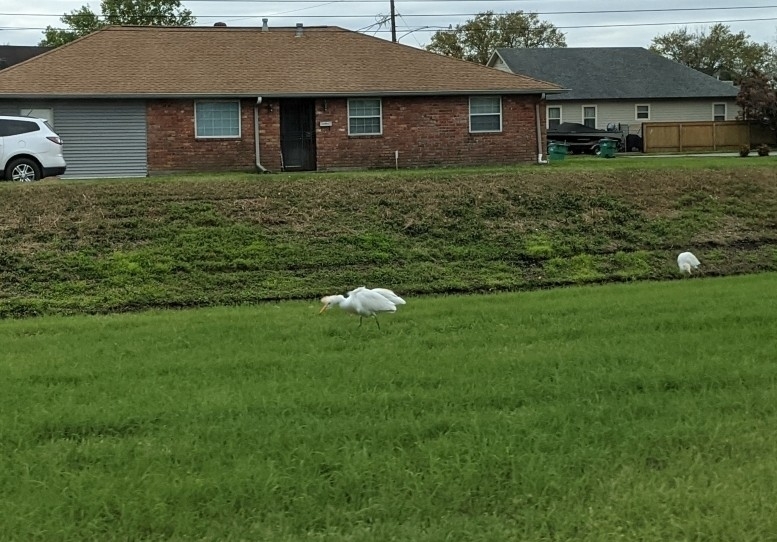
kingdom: Animalia
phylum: Chordata
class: Aves
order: Pelecaniformes
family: Ardeidae
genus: Bubulcus
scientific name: Bubulcus ibis
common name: Cattle egret
